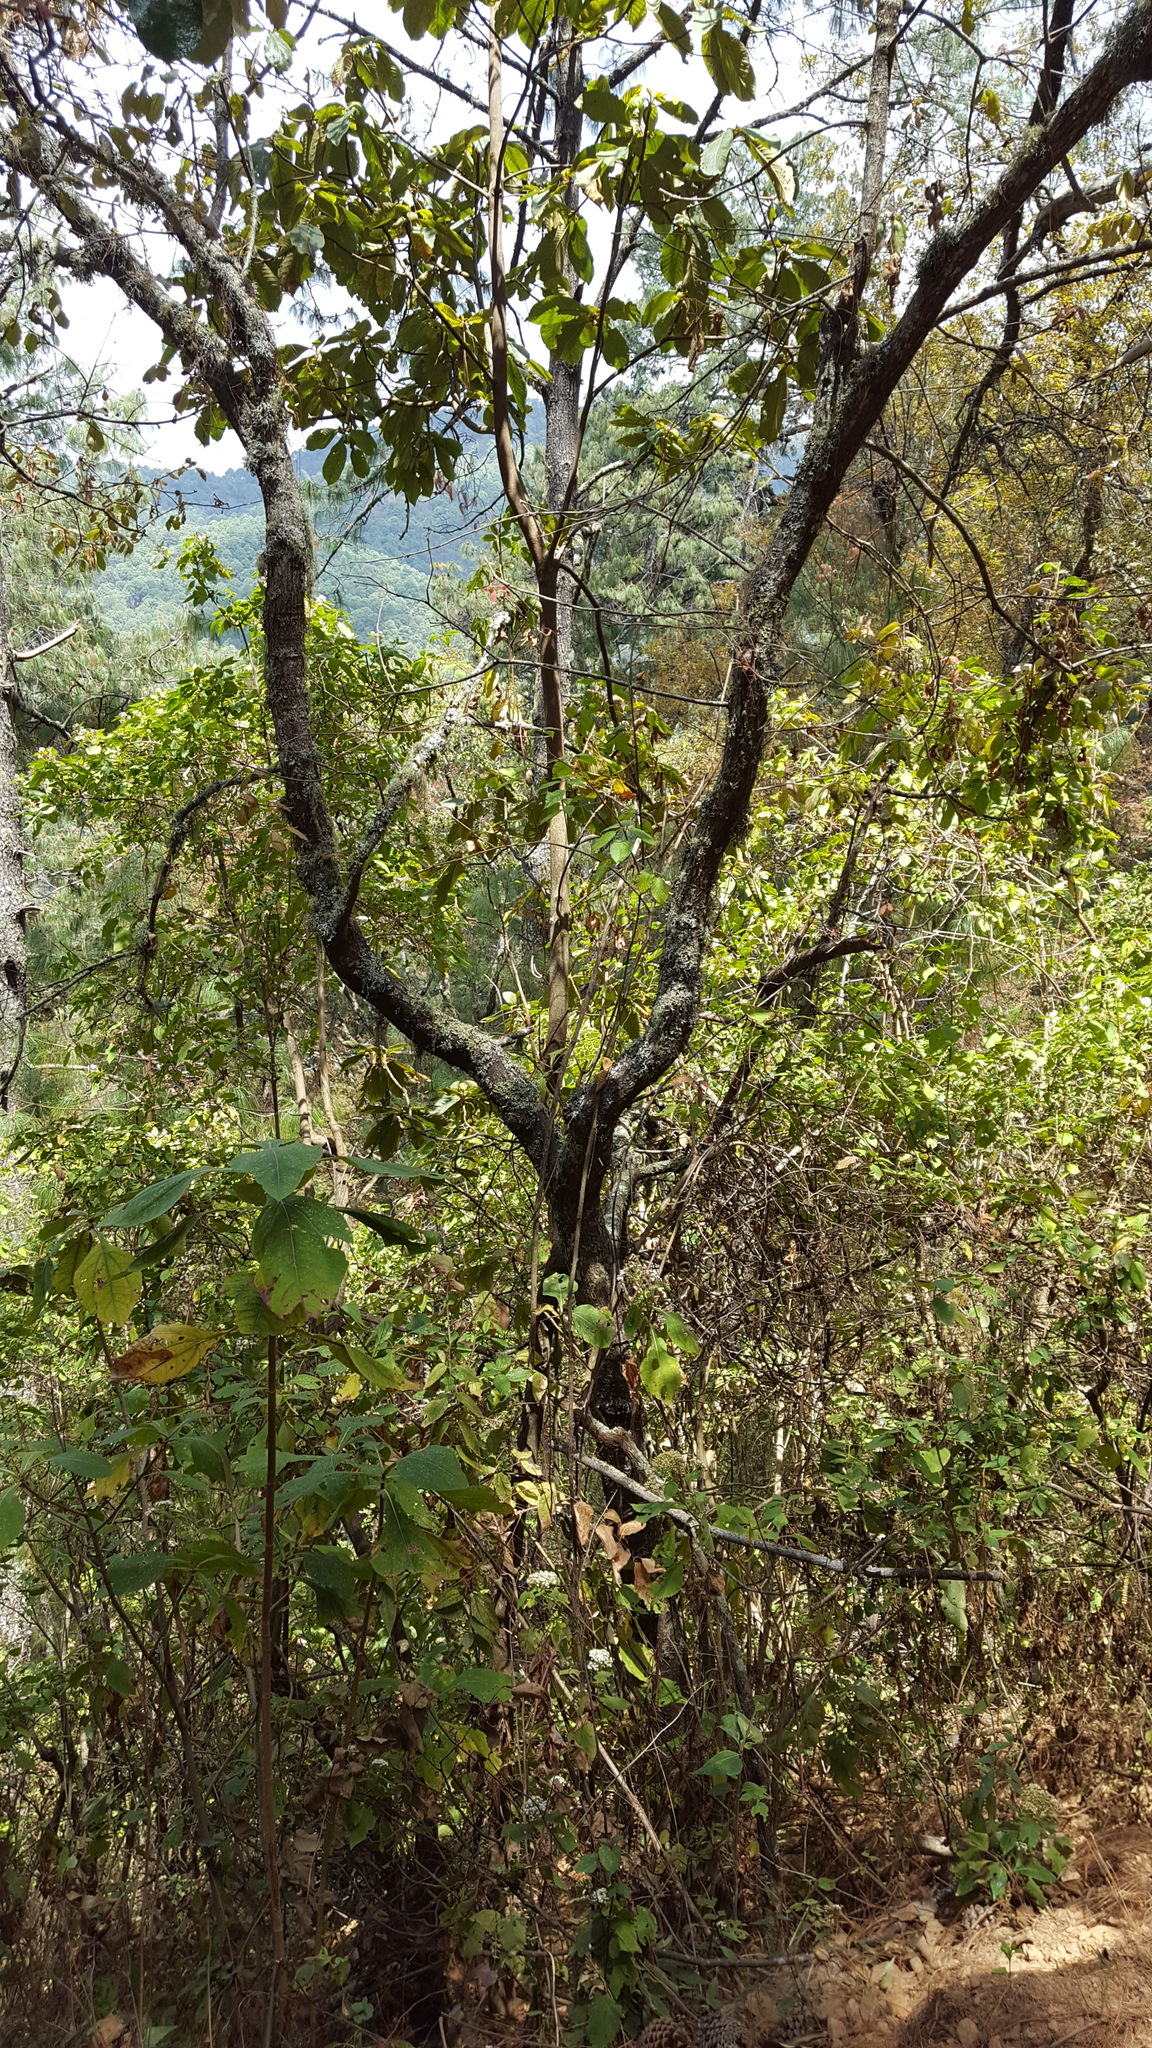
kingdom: Plantae
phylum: Tracheophyta
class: Magnoliopsida
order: Fagales
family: Fagaceae
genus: Quercus
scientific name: Quercus calophylla
